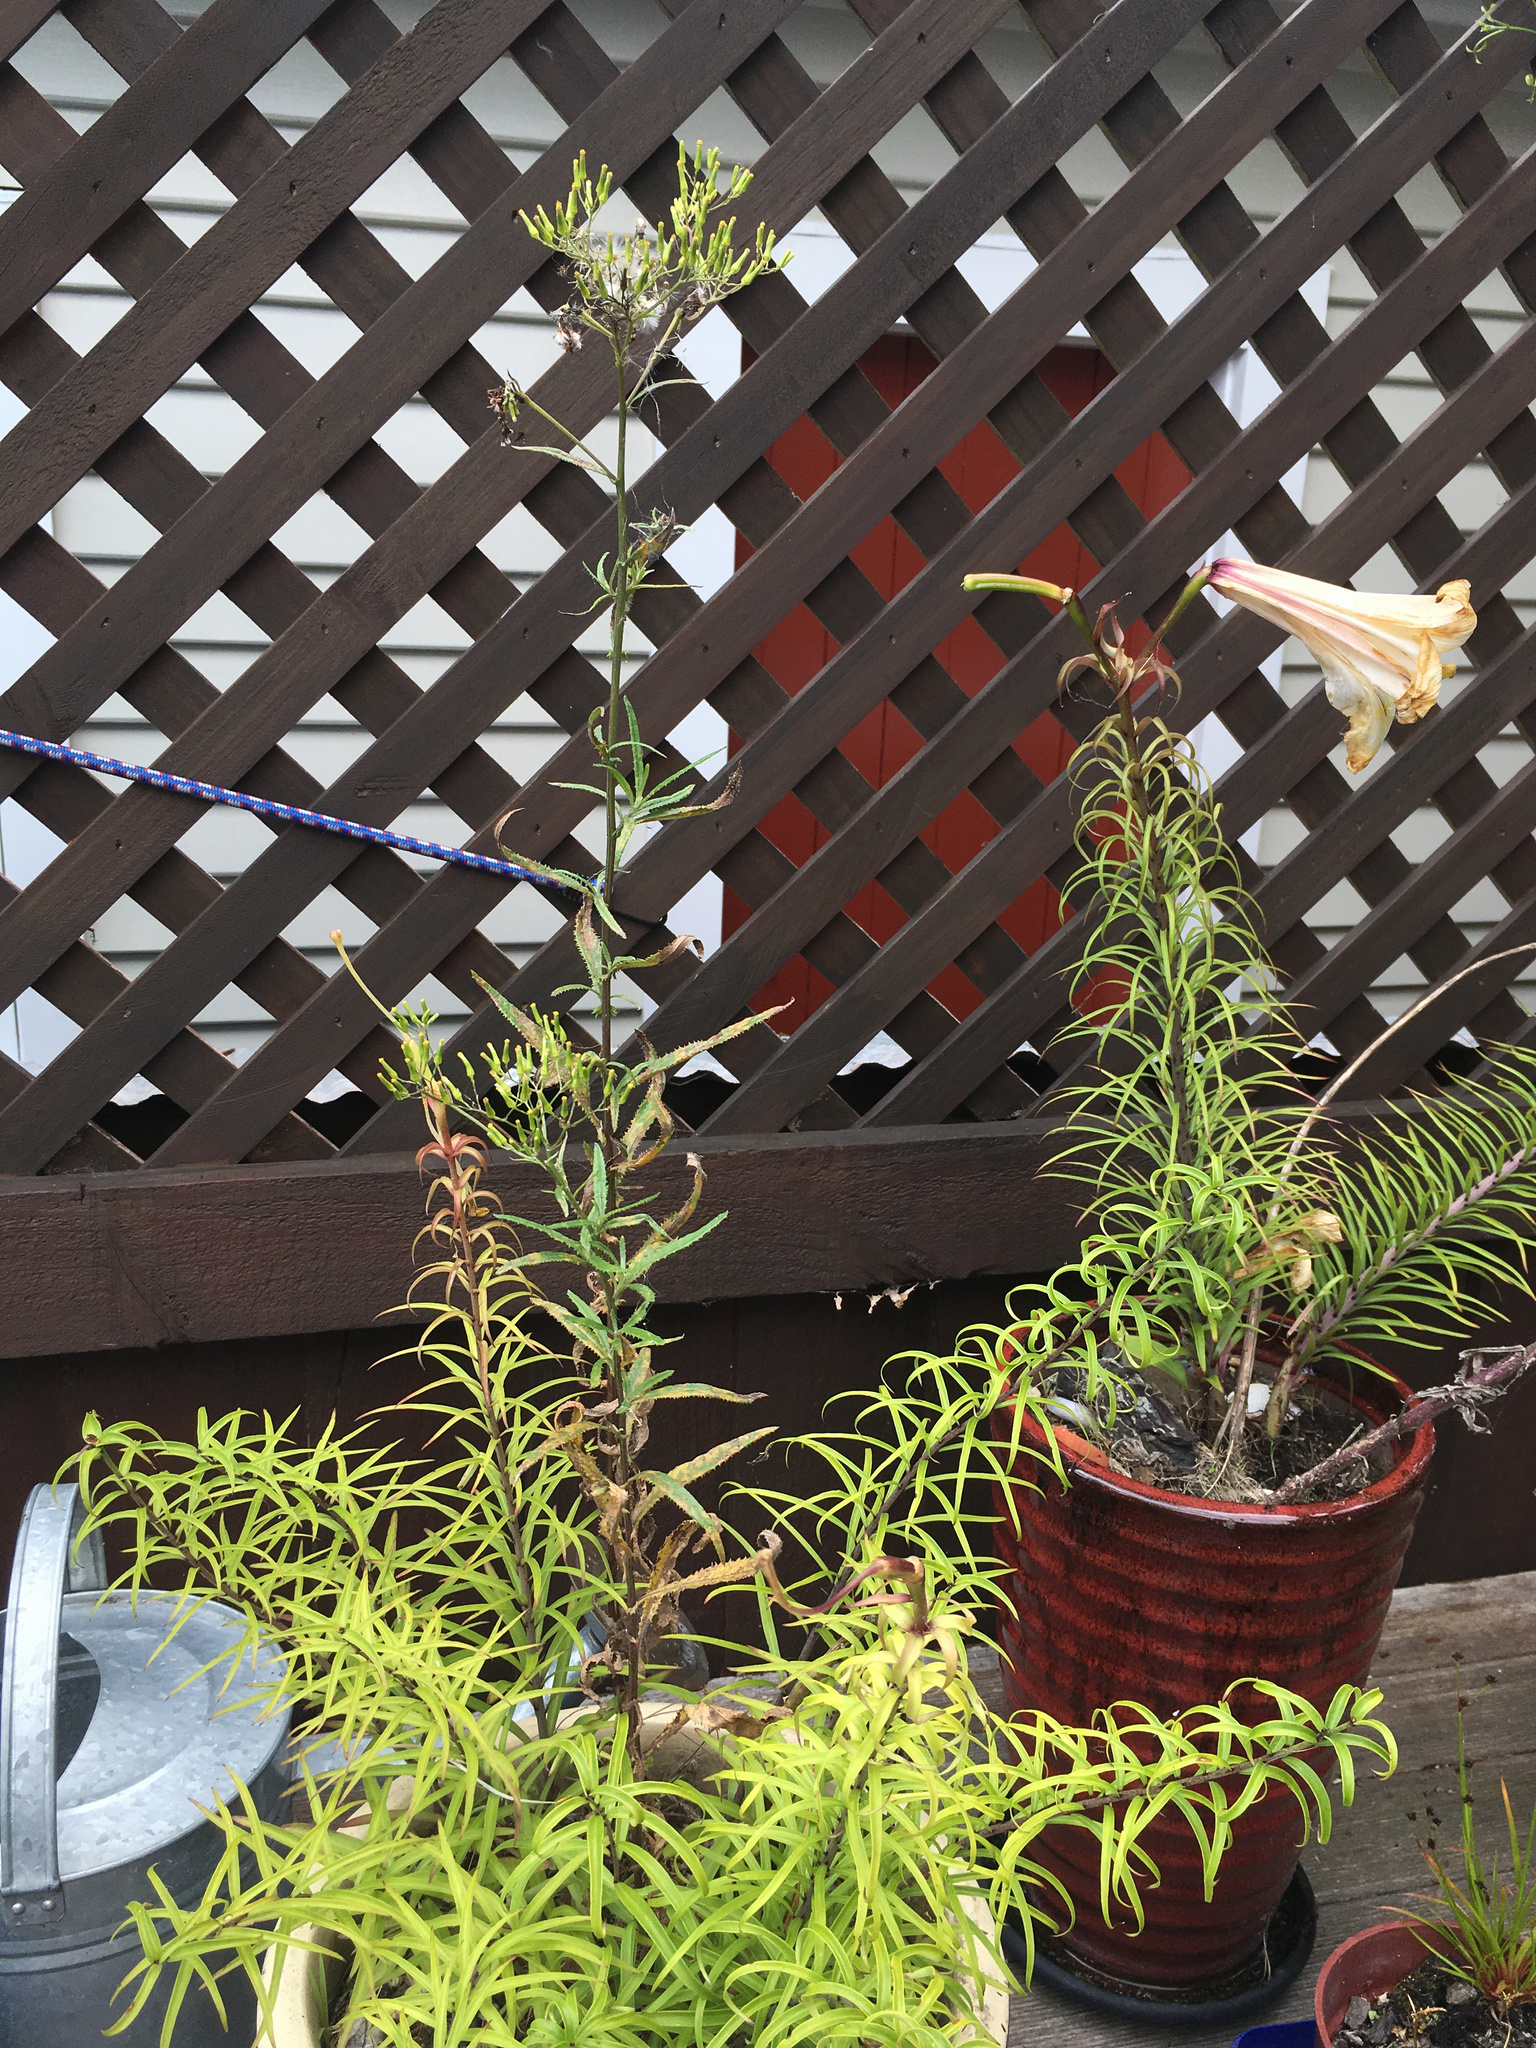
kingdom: Plantae
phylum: Tracheophyta
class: Magnoliopsida
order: Asterales
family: Asteraceae
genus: Senecio
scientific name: Senecio minimus
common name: Toothed fireweed
